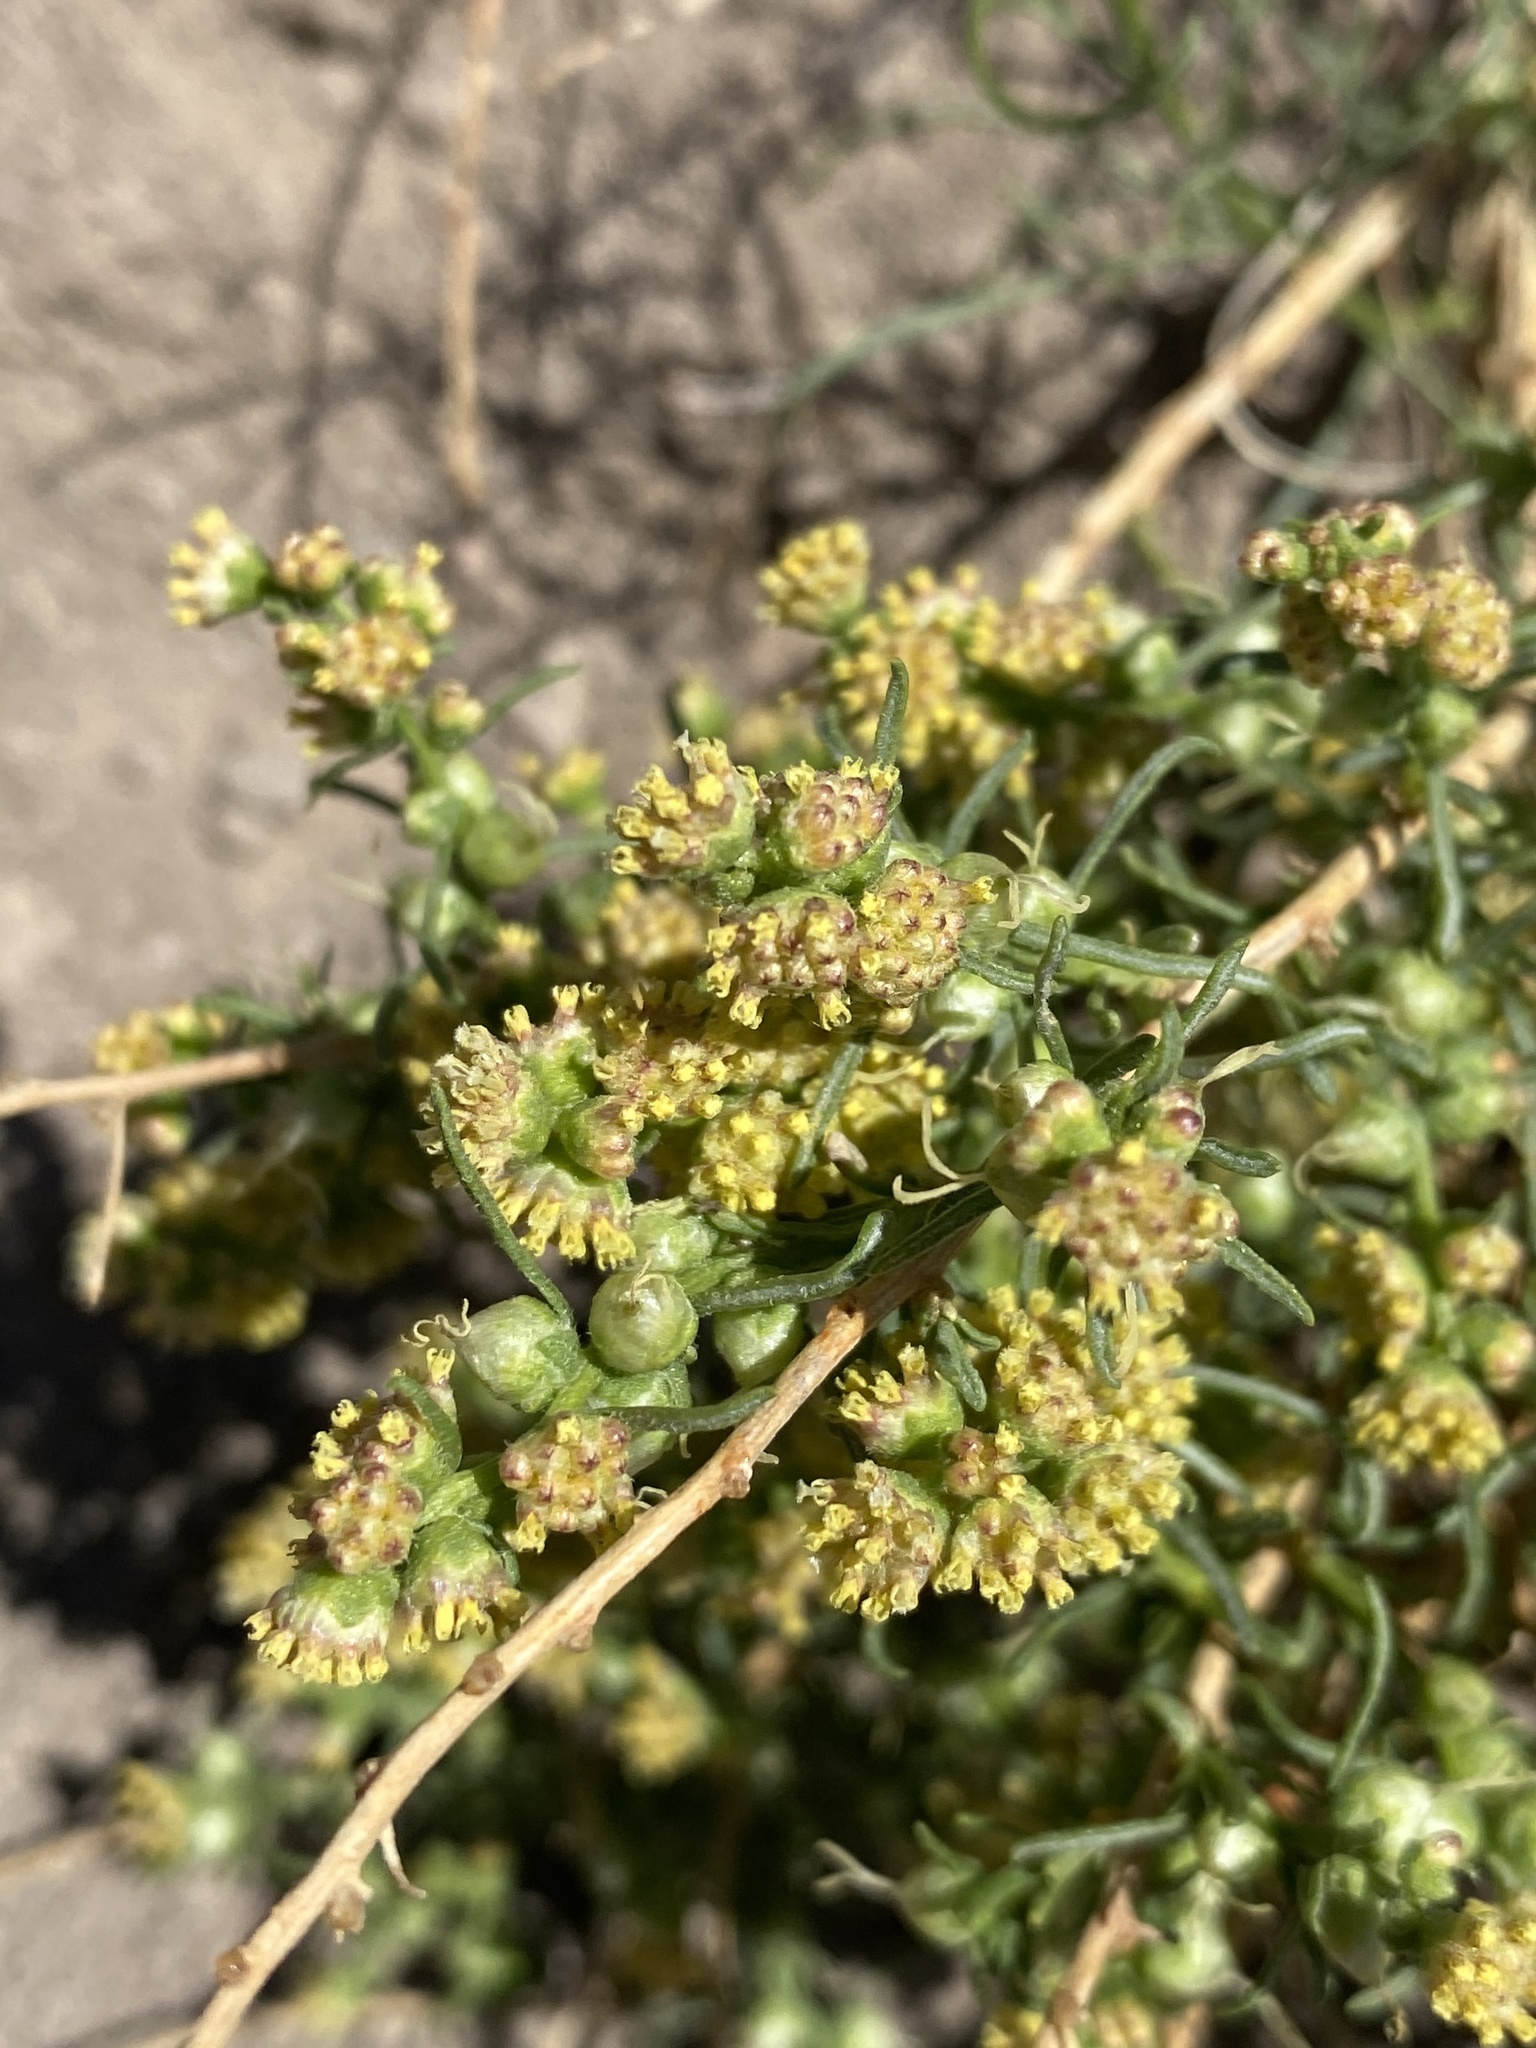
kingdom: Plantae
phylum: Tracheophyta
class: Magnoliopsida
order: Asterales
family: Asteraceae
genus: Ambrosia
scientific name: Ambrosia salsola
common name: Burrobrush
